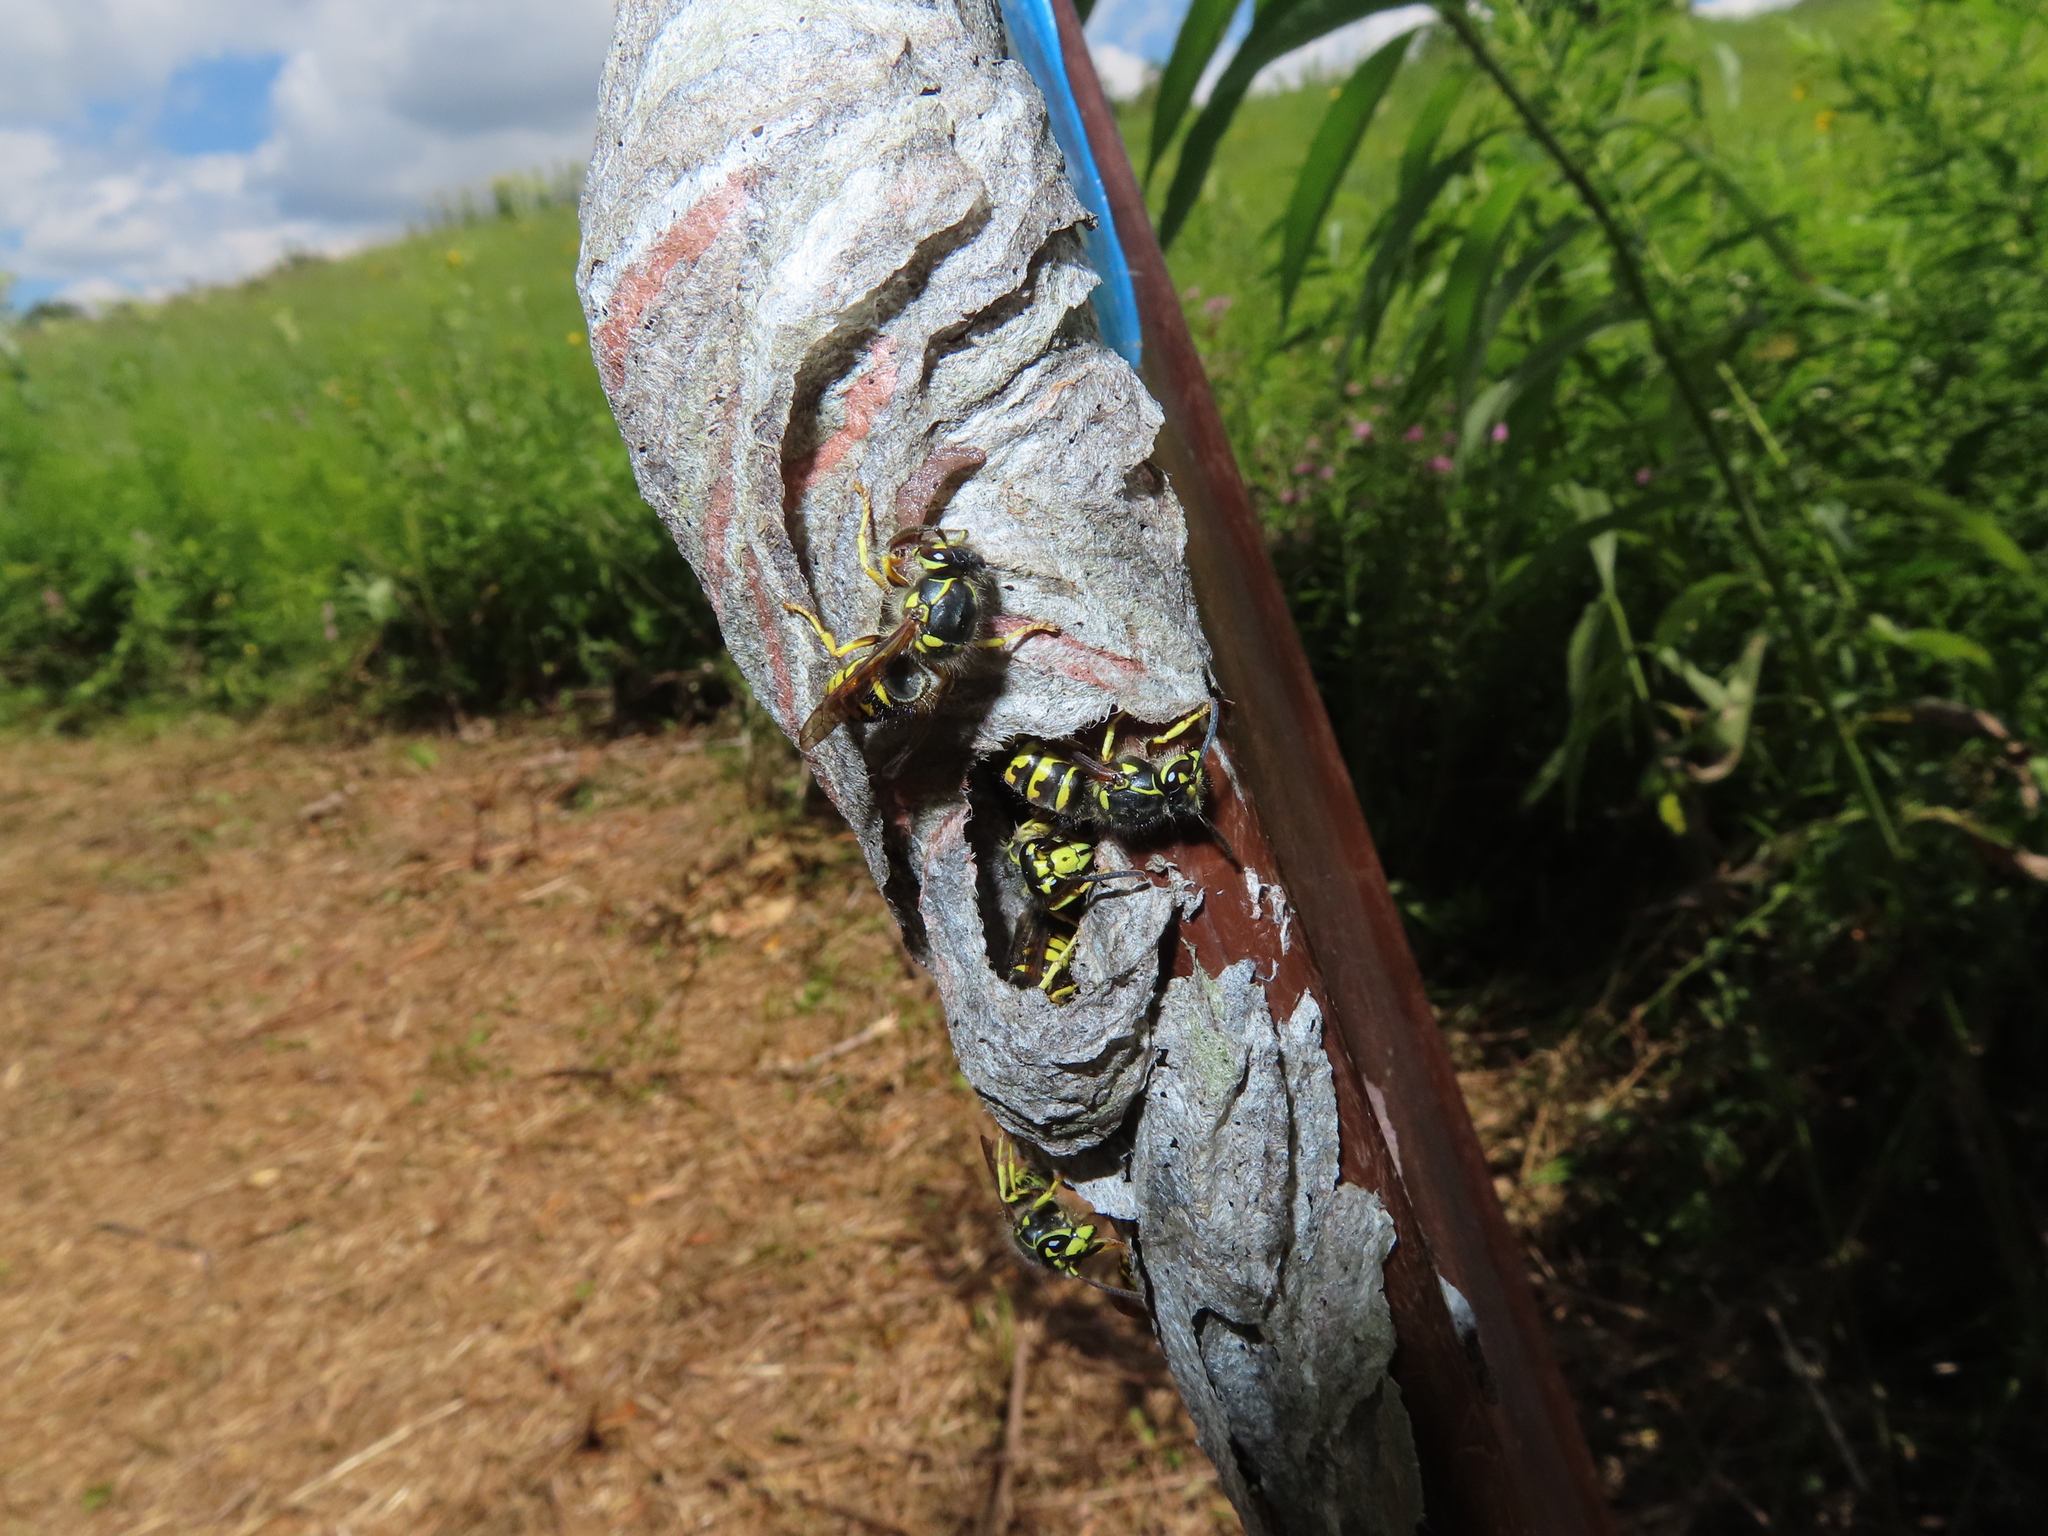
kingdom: Animalia
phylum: Arthropoda
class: Insecta
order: Hymenoptera
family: Vespidae
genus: Dolichovespula
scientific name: Dolichovespula arenaria
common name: Aerial yellowjacket
